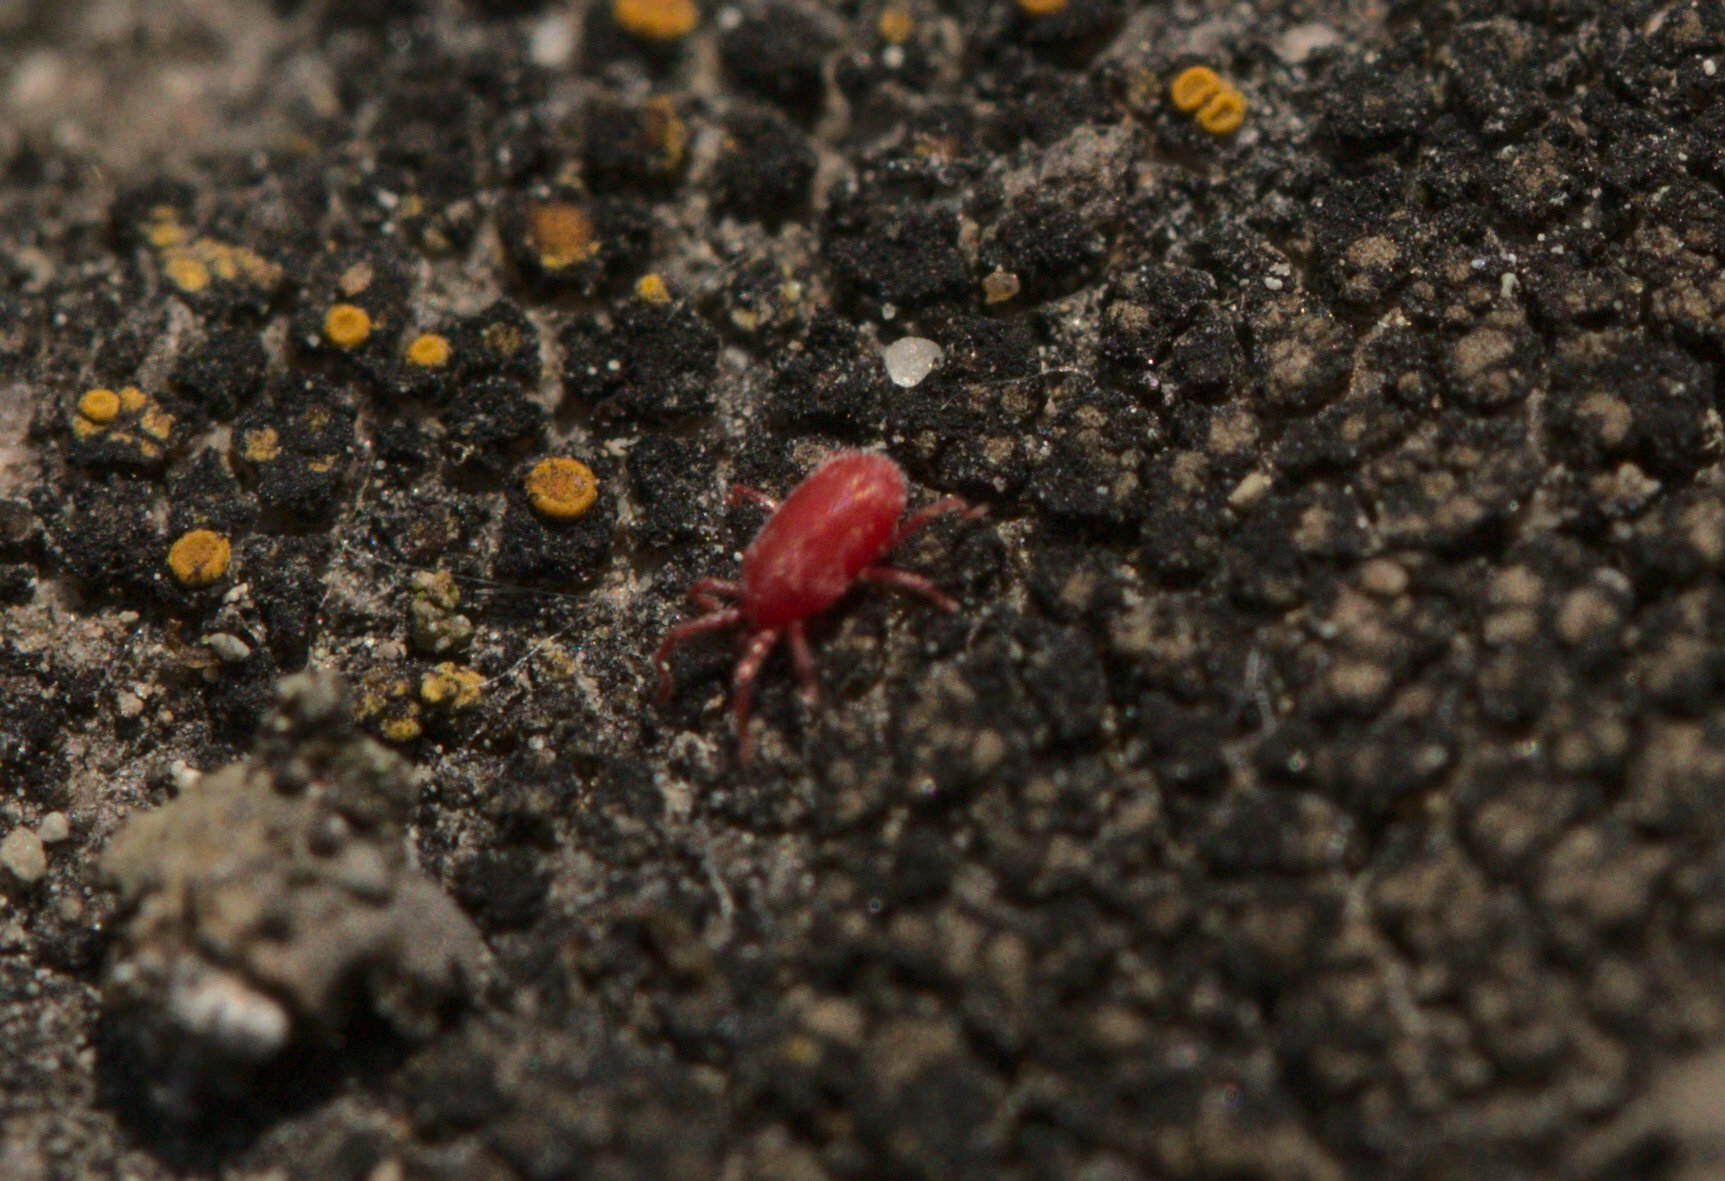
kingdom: Animalia
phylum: Arthropoda
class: Arachnida
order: Trombidiformes
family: Erythraeidae
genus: Balaustium
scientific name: Balaustium
